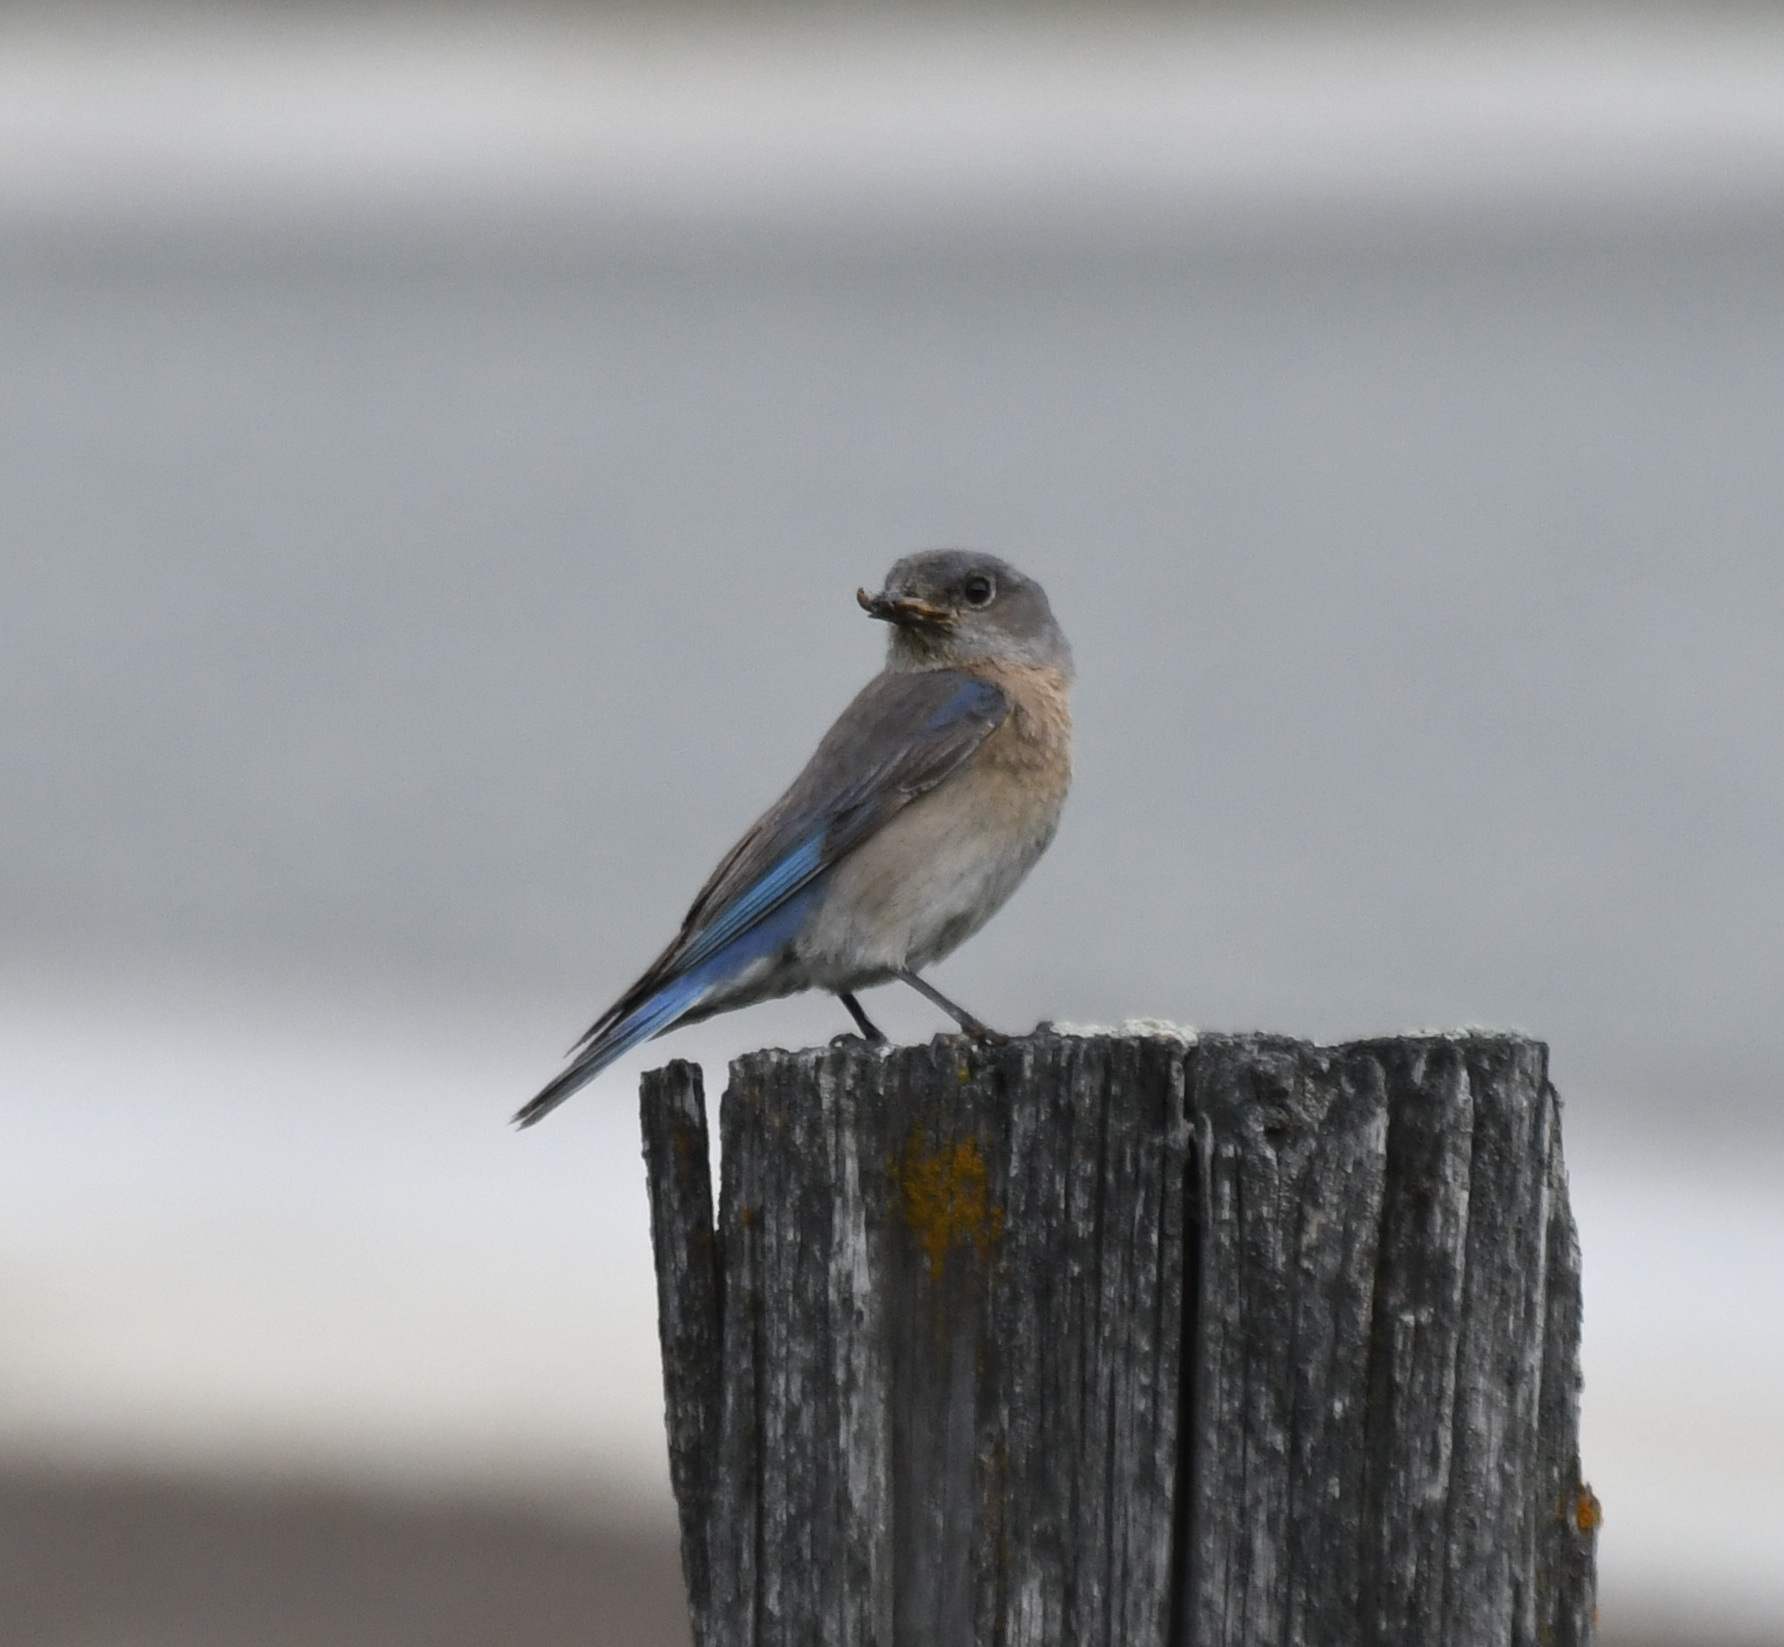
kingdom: Animalia
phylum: Chordata
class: Aves
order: Passeriformes
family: Turdidae
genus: Sialia
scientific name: Sialia mexicana
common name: Western bluebird
